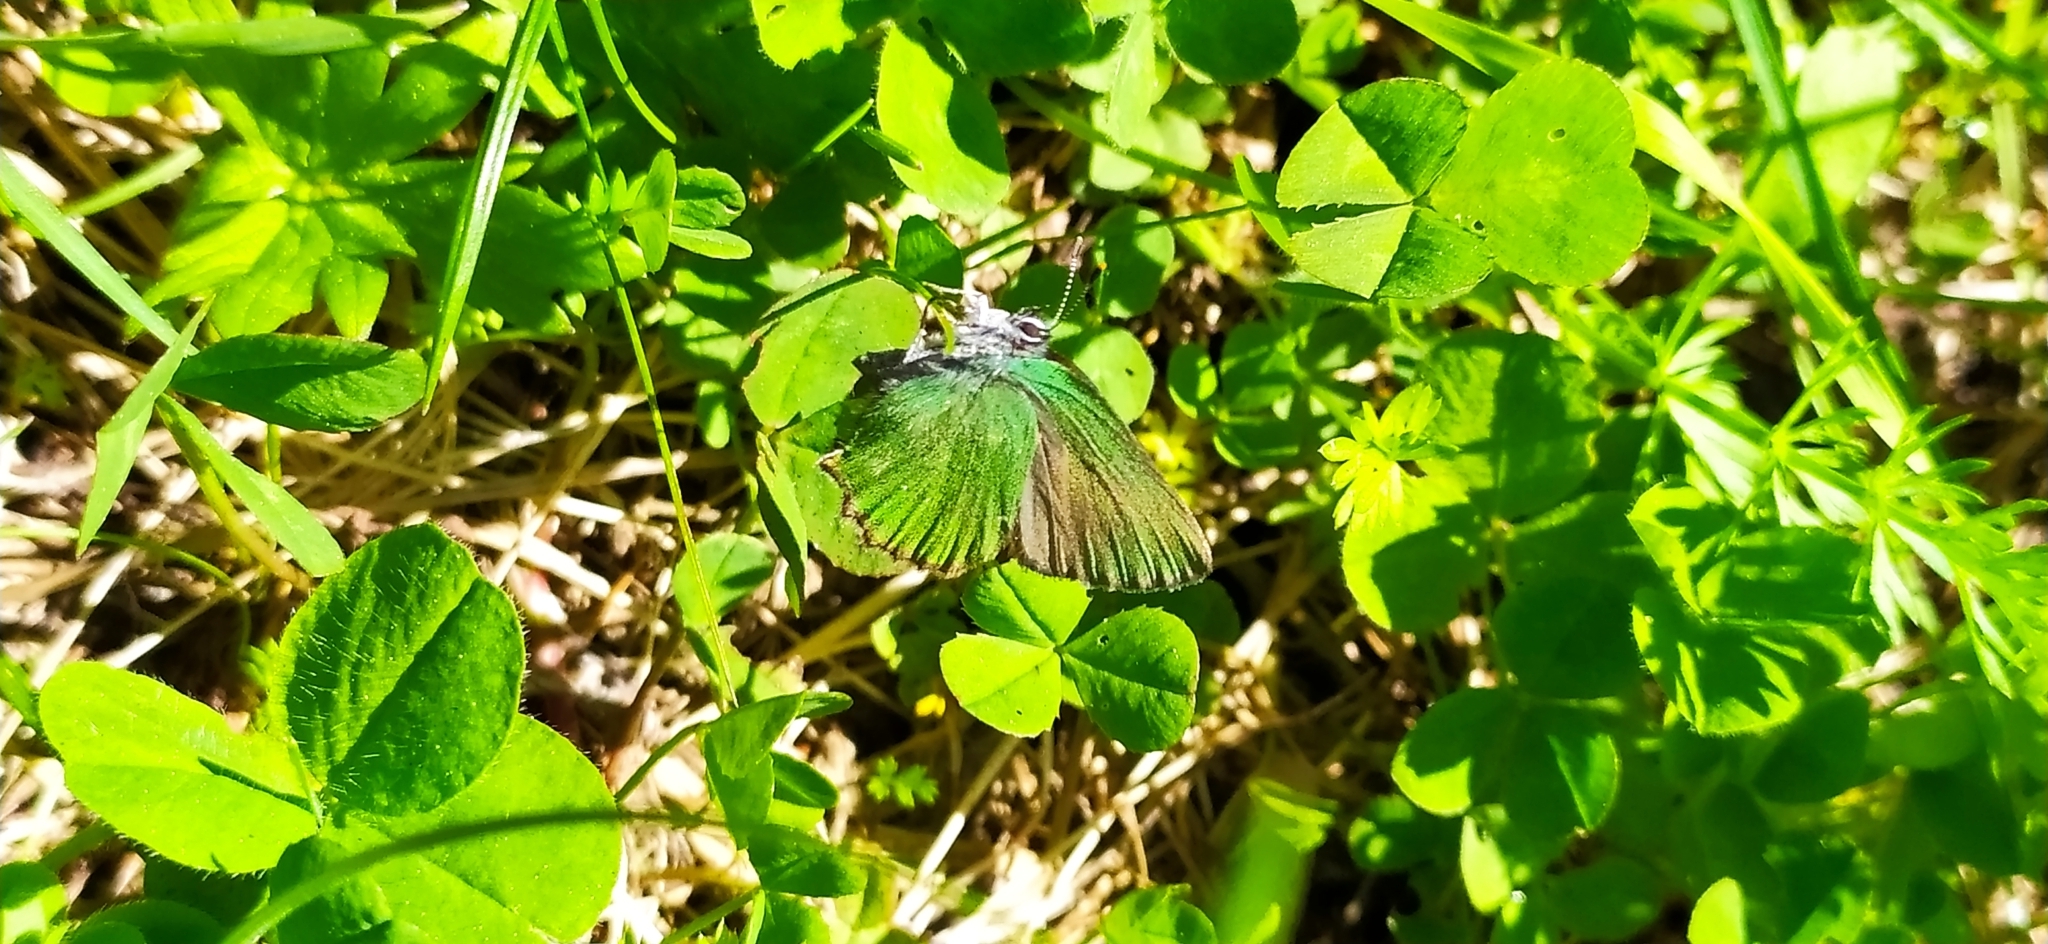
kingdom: Animalia
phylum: Arthropoda
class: Insecta
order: Lepidoptera
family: Lycaenidae
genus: Callophrys
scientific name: Callophrys rubi
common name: Green hairstreak
